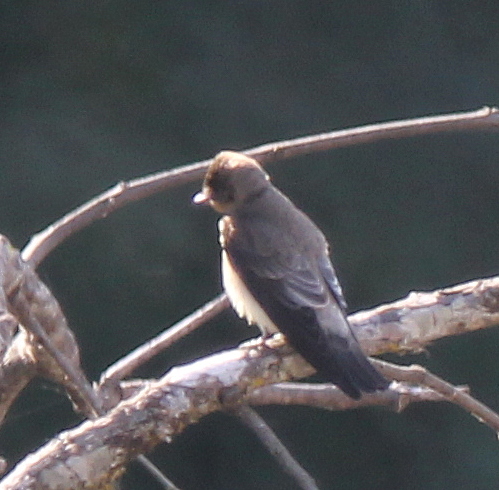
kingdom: Animalia
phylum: Chordata
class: Aves
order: Passeriformes
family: Hirundinidae
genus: Stelgidopteryx
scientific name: Stelgidopteryx ruficollis
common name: Southern rough-winged swallow
